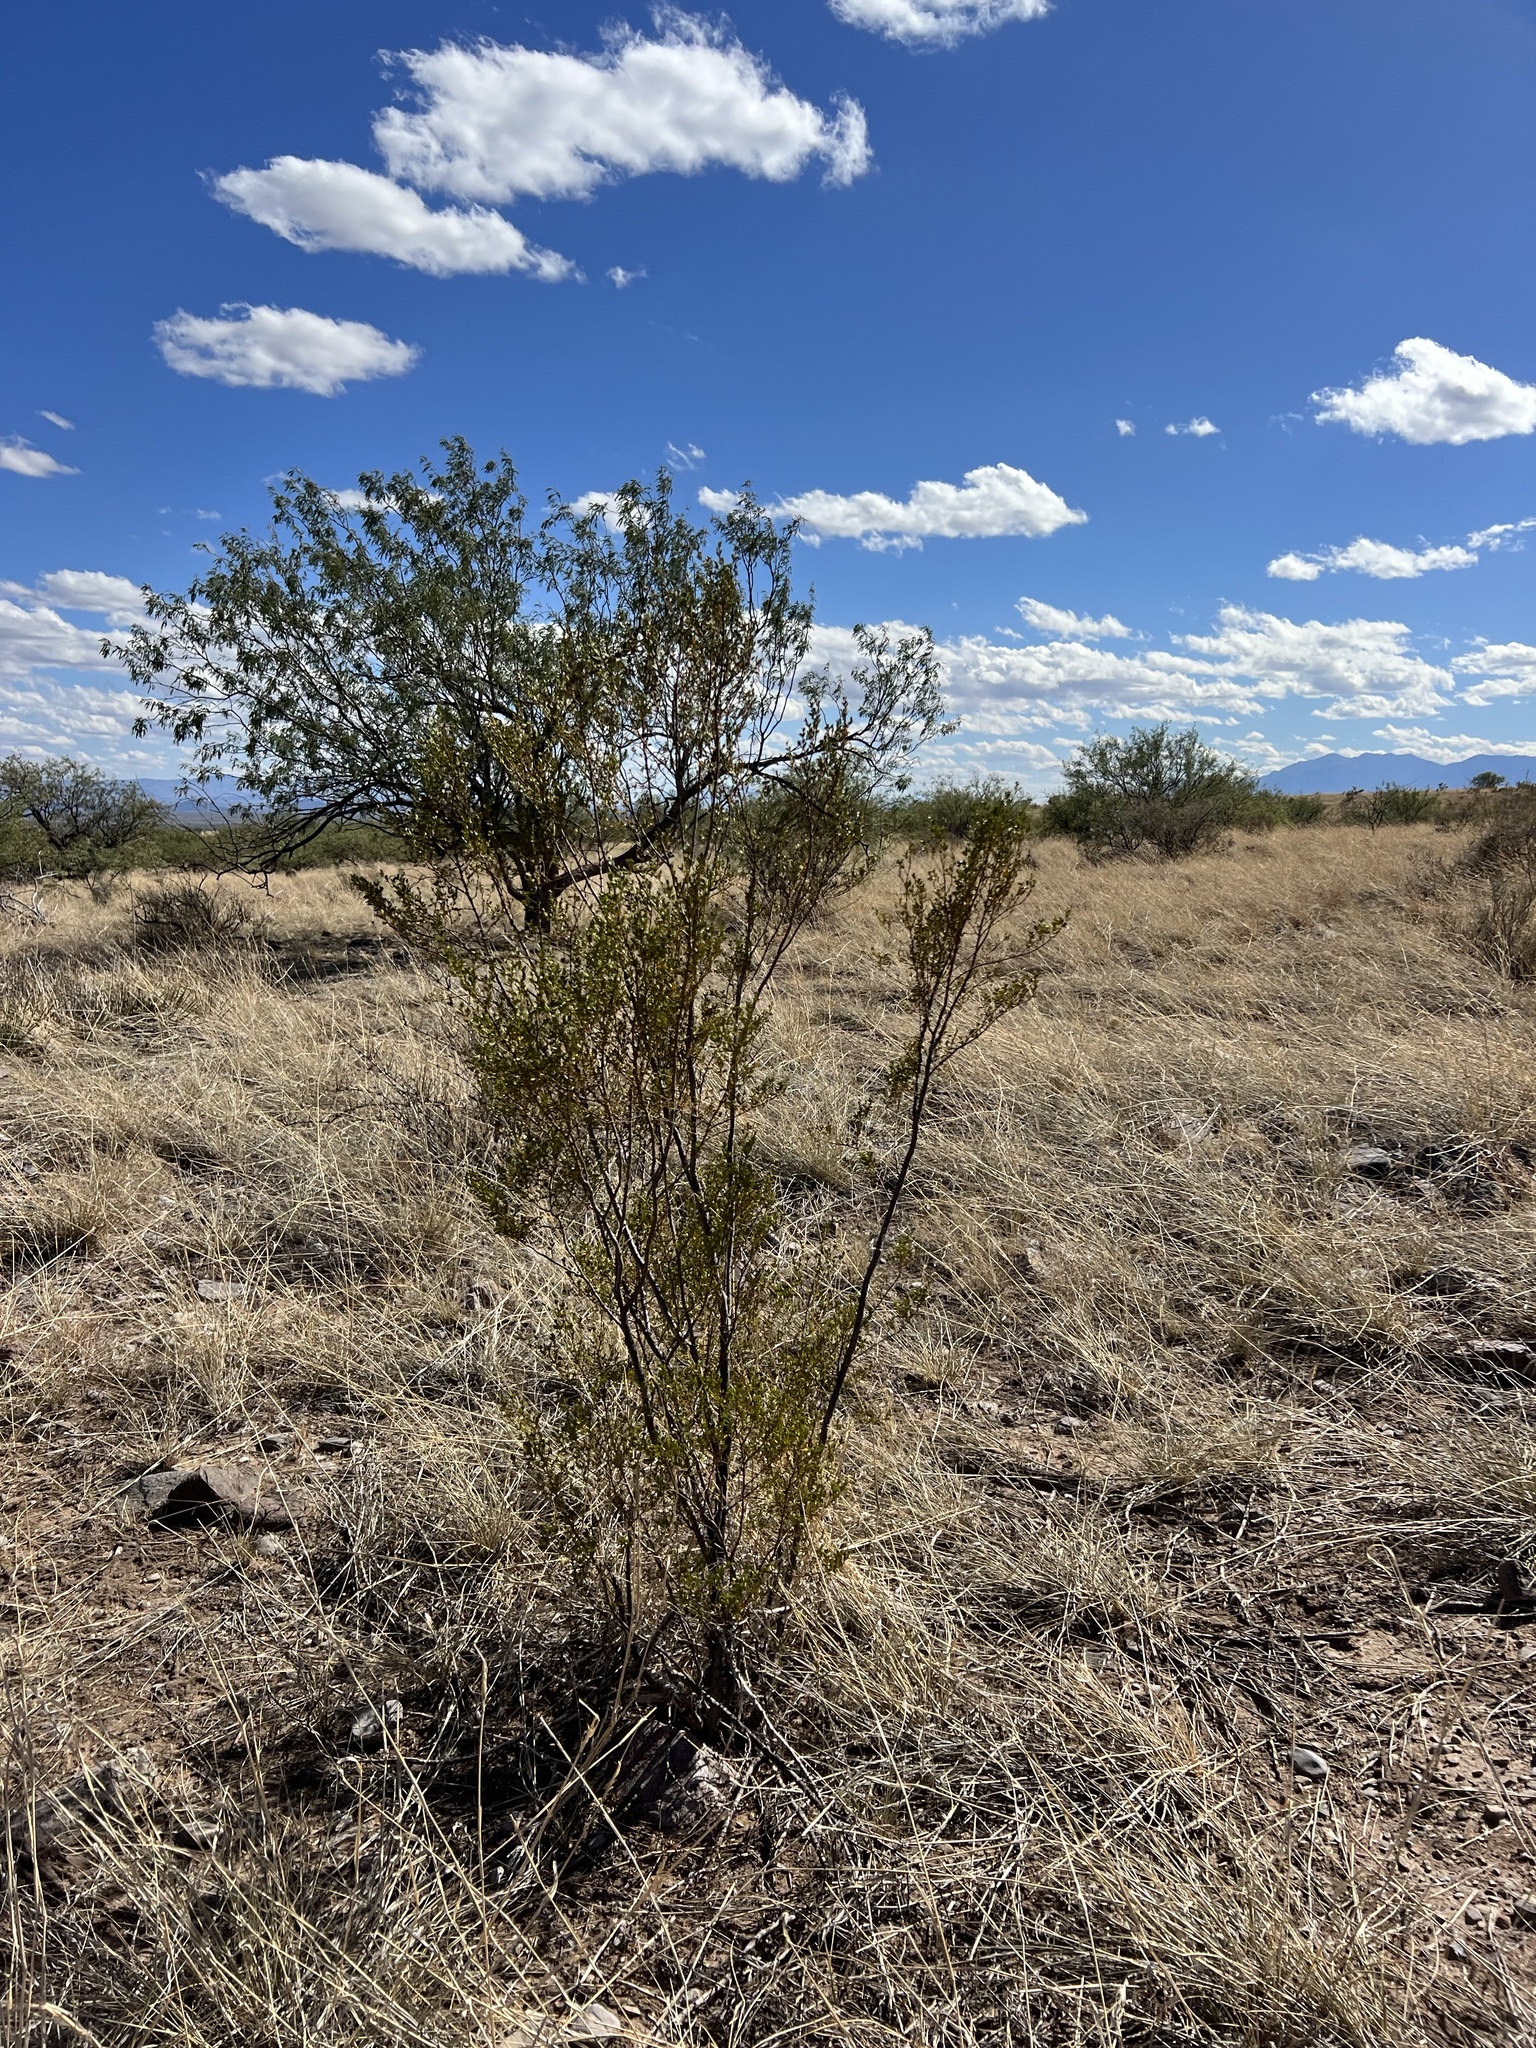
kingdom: Plantae
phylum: Tracheophyta
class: Magnoliopsida
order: Zygophyllales
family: Zygophyllaceae
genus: Larrea
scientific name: Larrea tridentata
